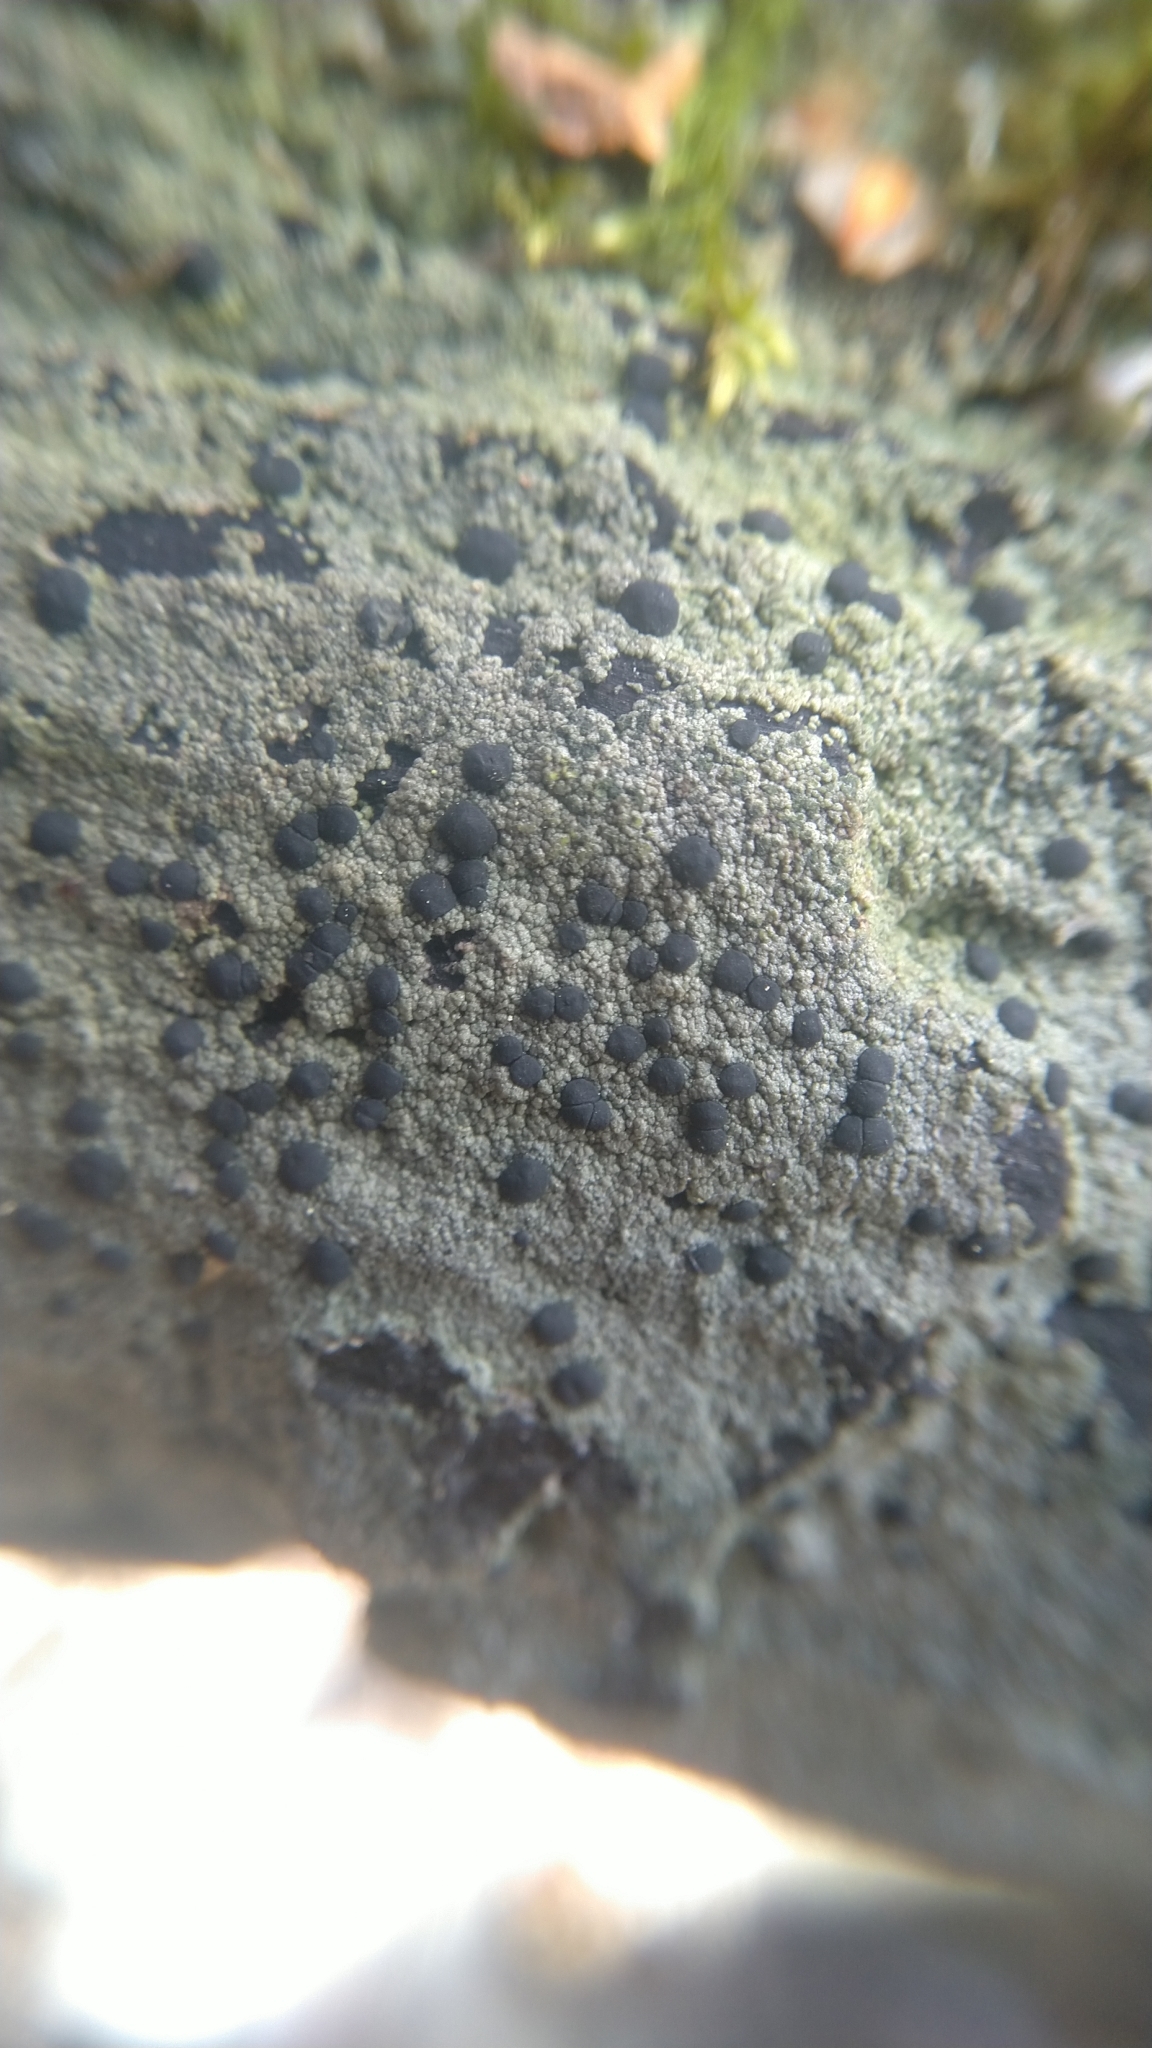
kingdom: Fungi
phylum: Ascomycota
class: Lecanoromycetes
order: Baeomycetales
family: Trapeliaceae
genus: Trapeliopsis
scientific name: Trapeliopsis flexuosa
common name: Board lichen
